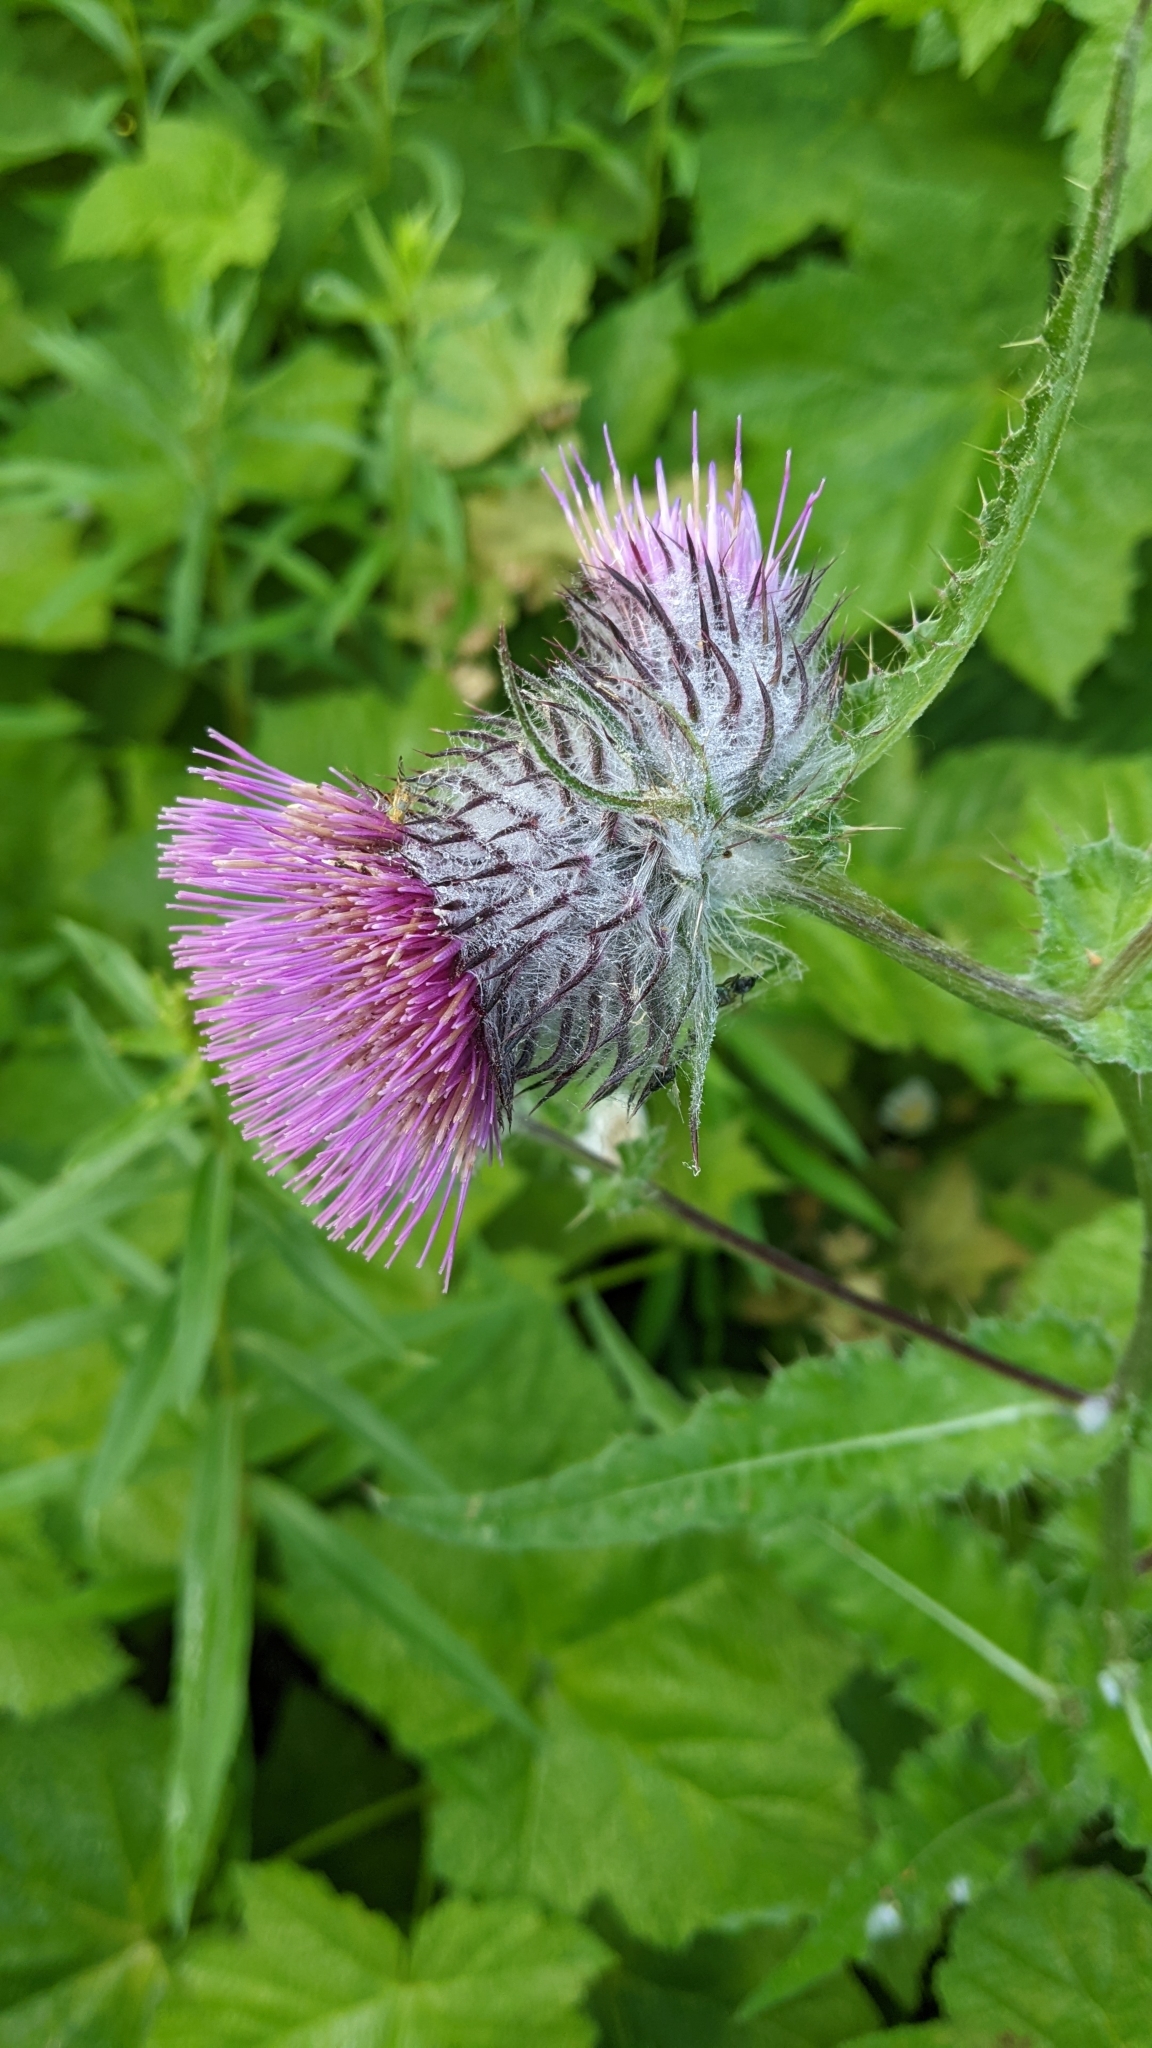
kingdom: Plantae
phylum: Tracheophyta
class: Magnoliopsida
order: Asterales
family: Asteraceae
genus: Cirsium
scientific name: Cirsium edule
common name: Indian thistle
